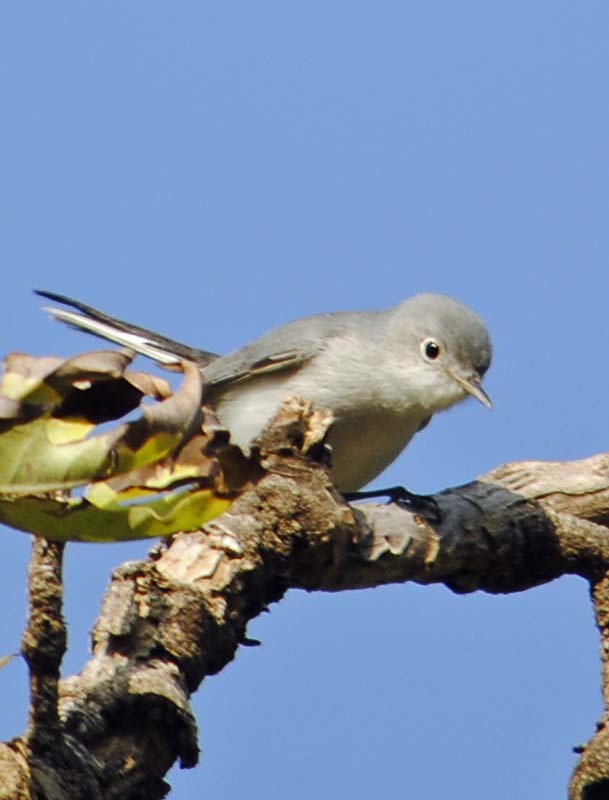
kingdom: Animalia
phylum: Chordata
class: Aves
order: Passeriformes
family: Polioptilidae
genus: Polioptila
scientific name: Polioptila caerulea
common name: Blue-gray gnatcatcher
